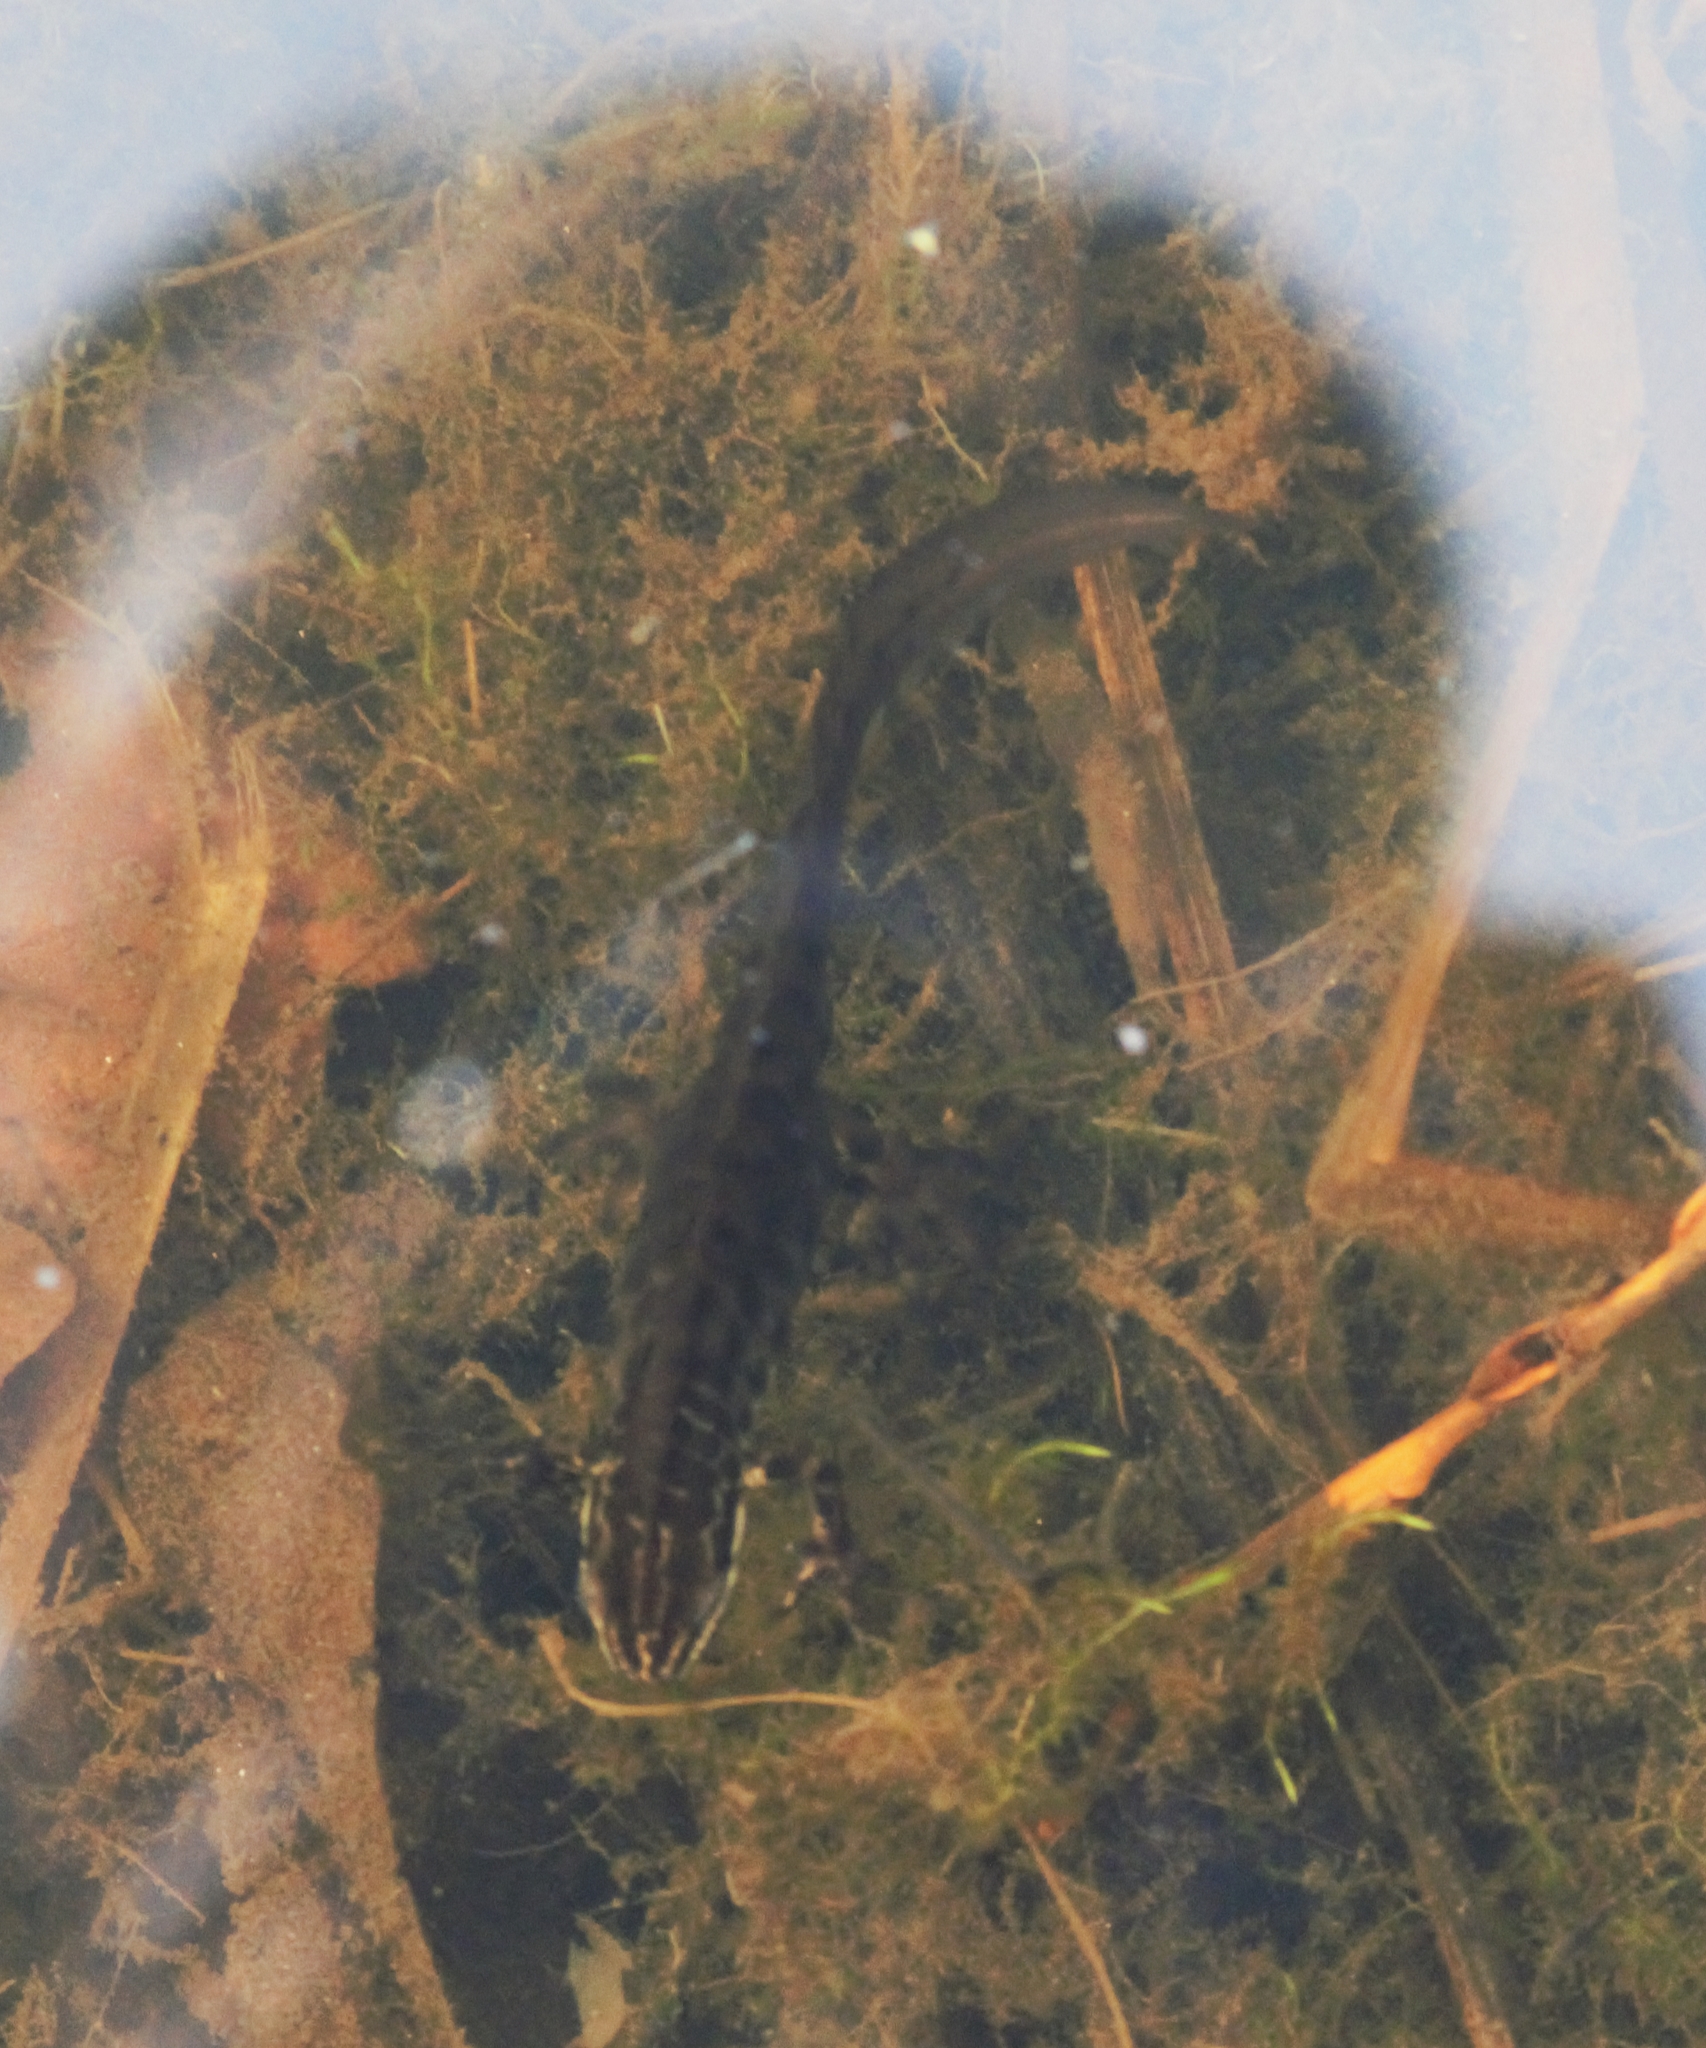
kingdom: Animalia
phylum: Chordata
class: Amphibia
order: Caudata
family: Salamandridae
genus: Lissotriton
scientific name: Lissotriton vulgaris
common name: Smooth newt
